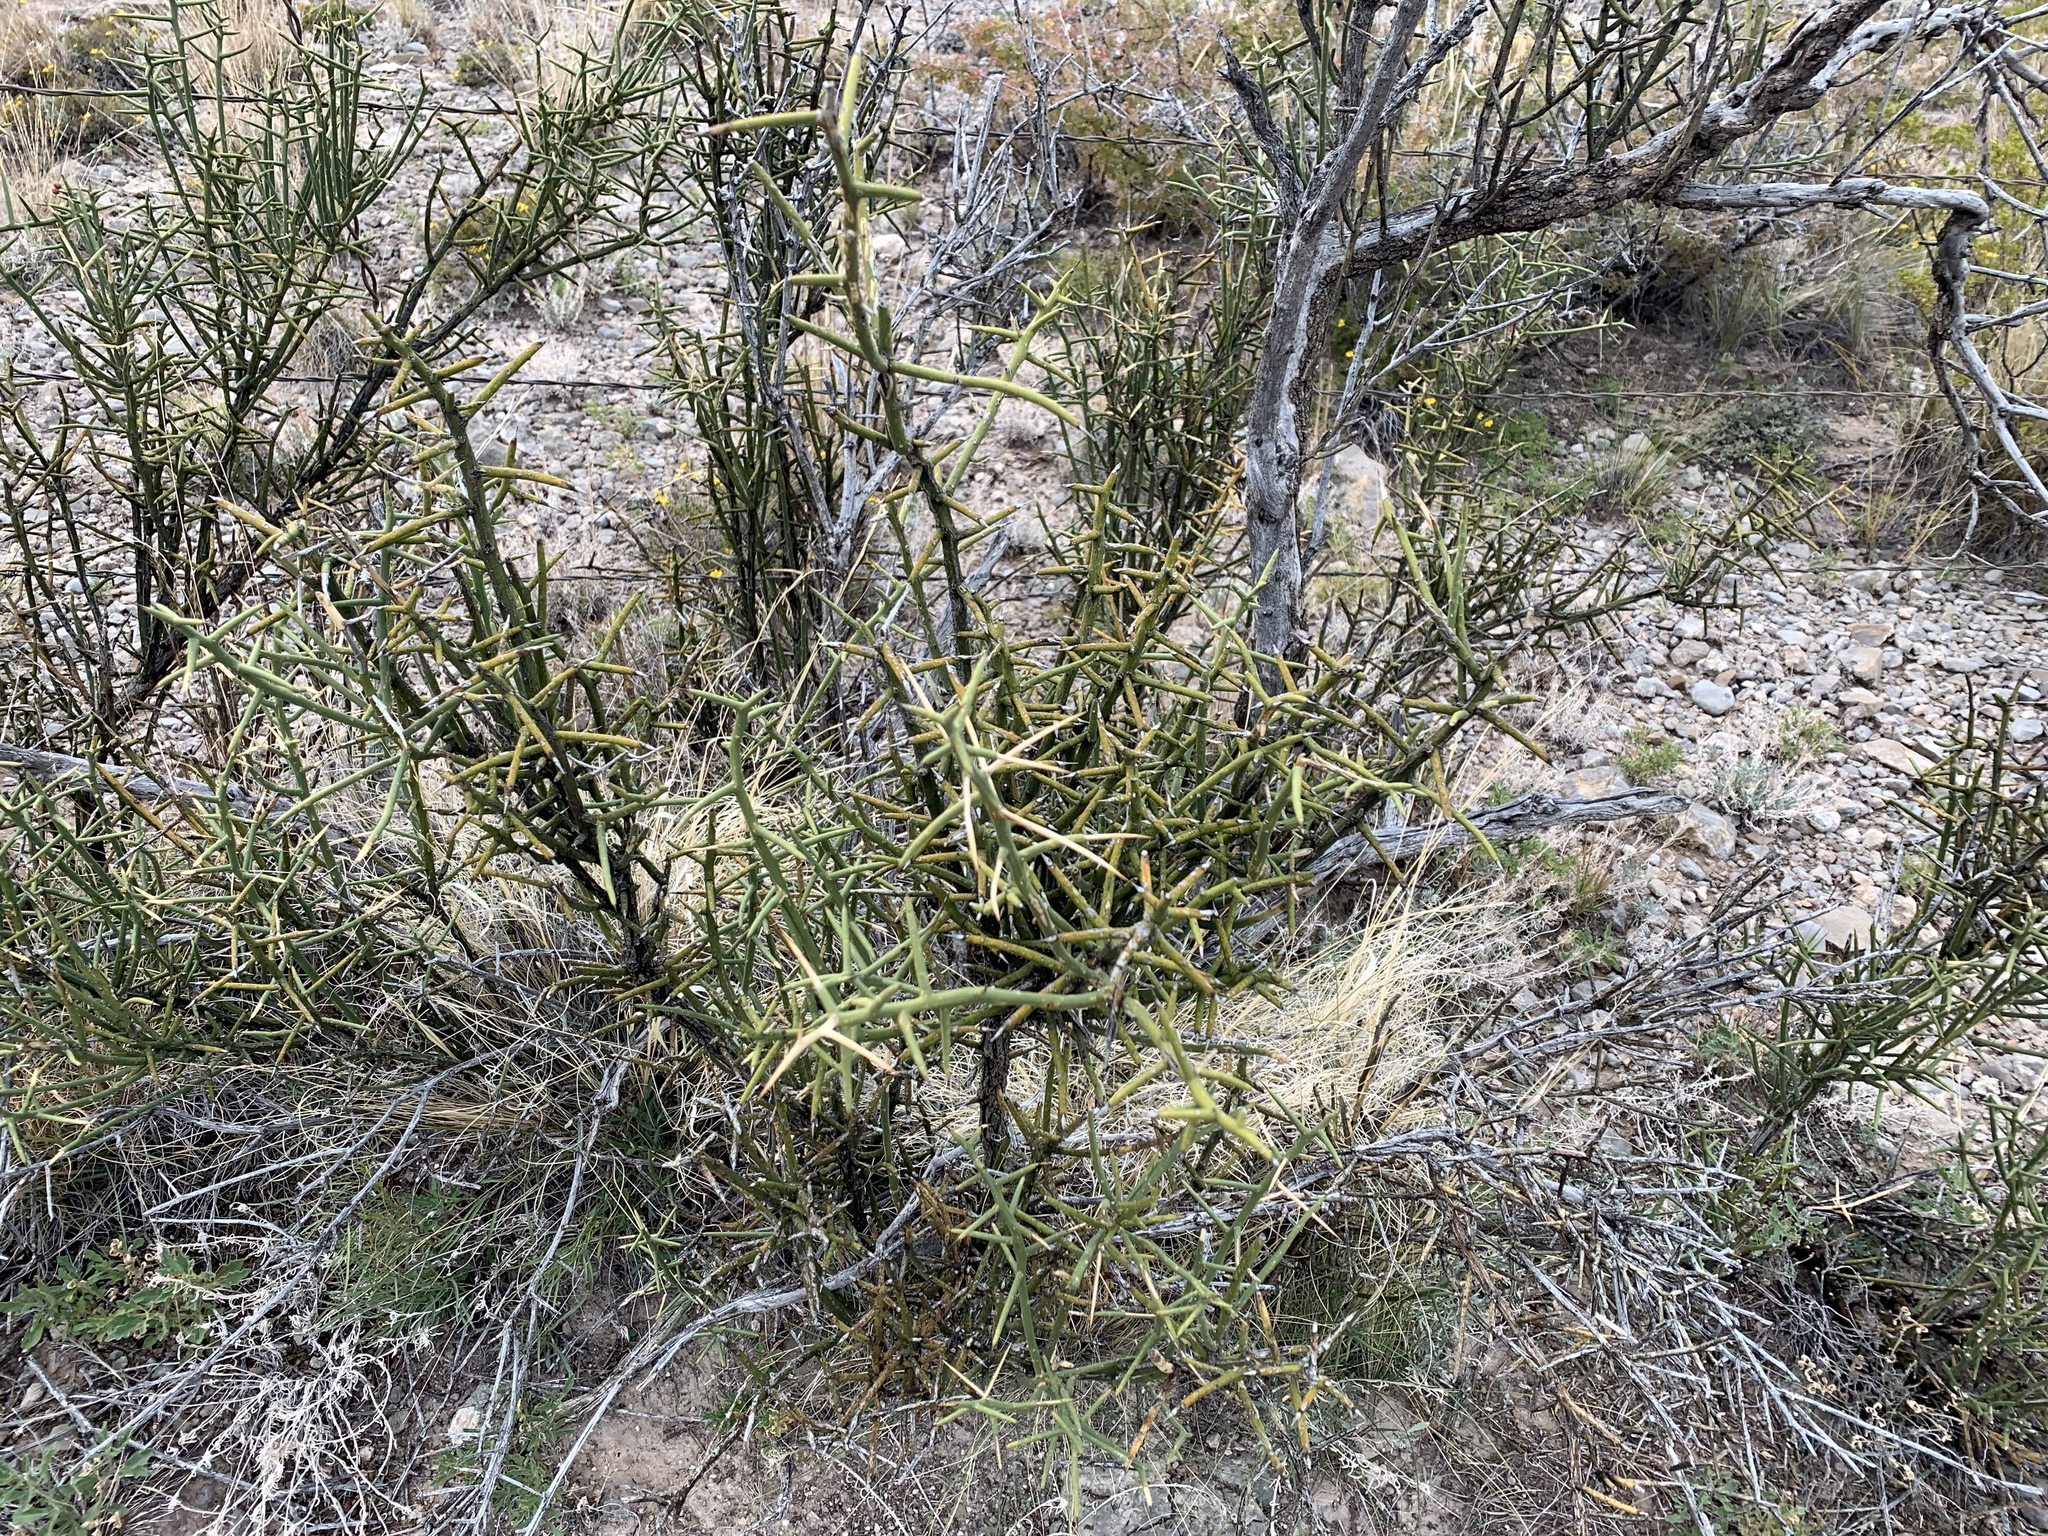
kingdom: Plantae
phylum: Tracheophyta
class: Magnoliopsida
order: Brassicales
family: Koeberliniaceae
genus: Koeberlinia
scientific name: Koeberlinia spinosa
